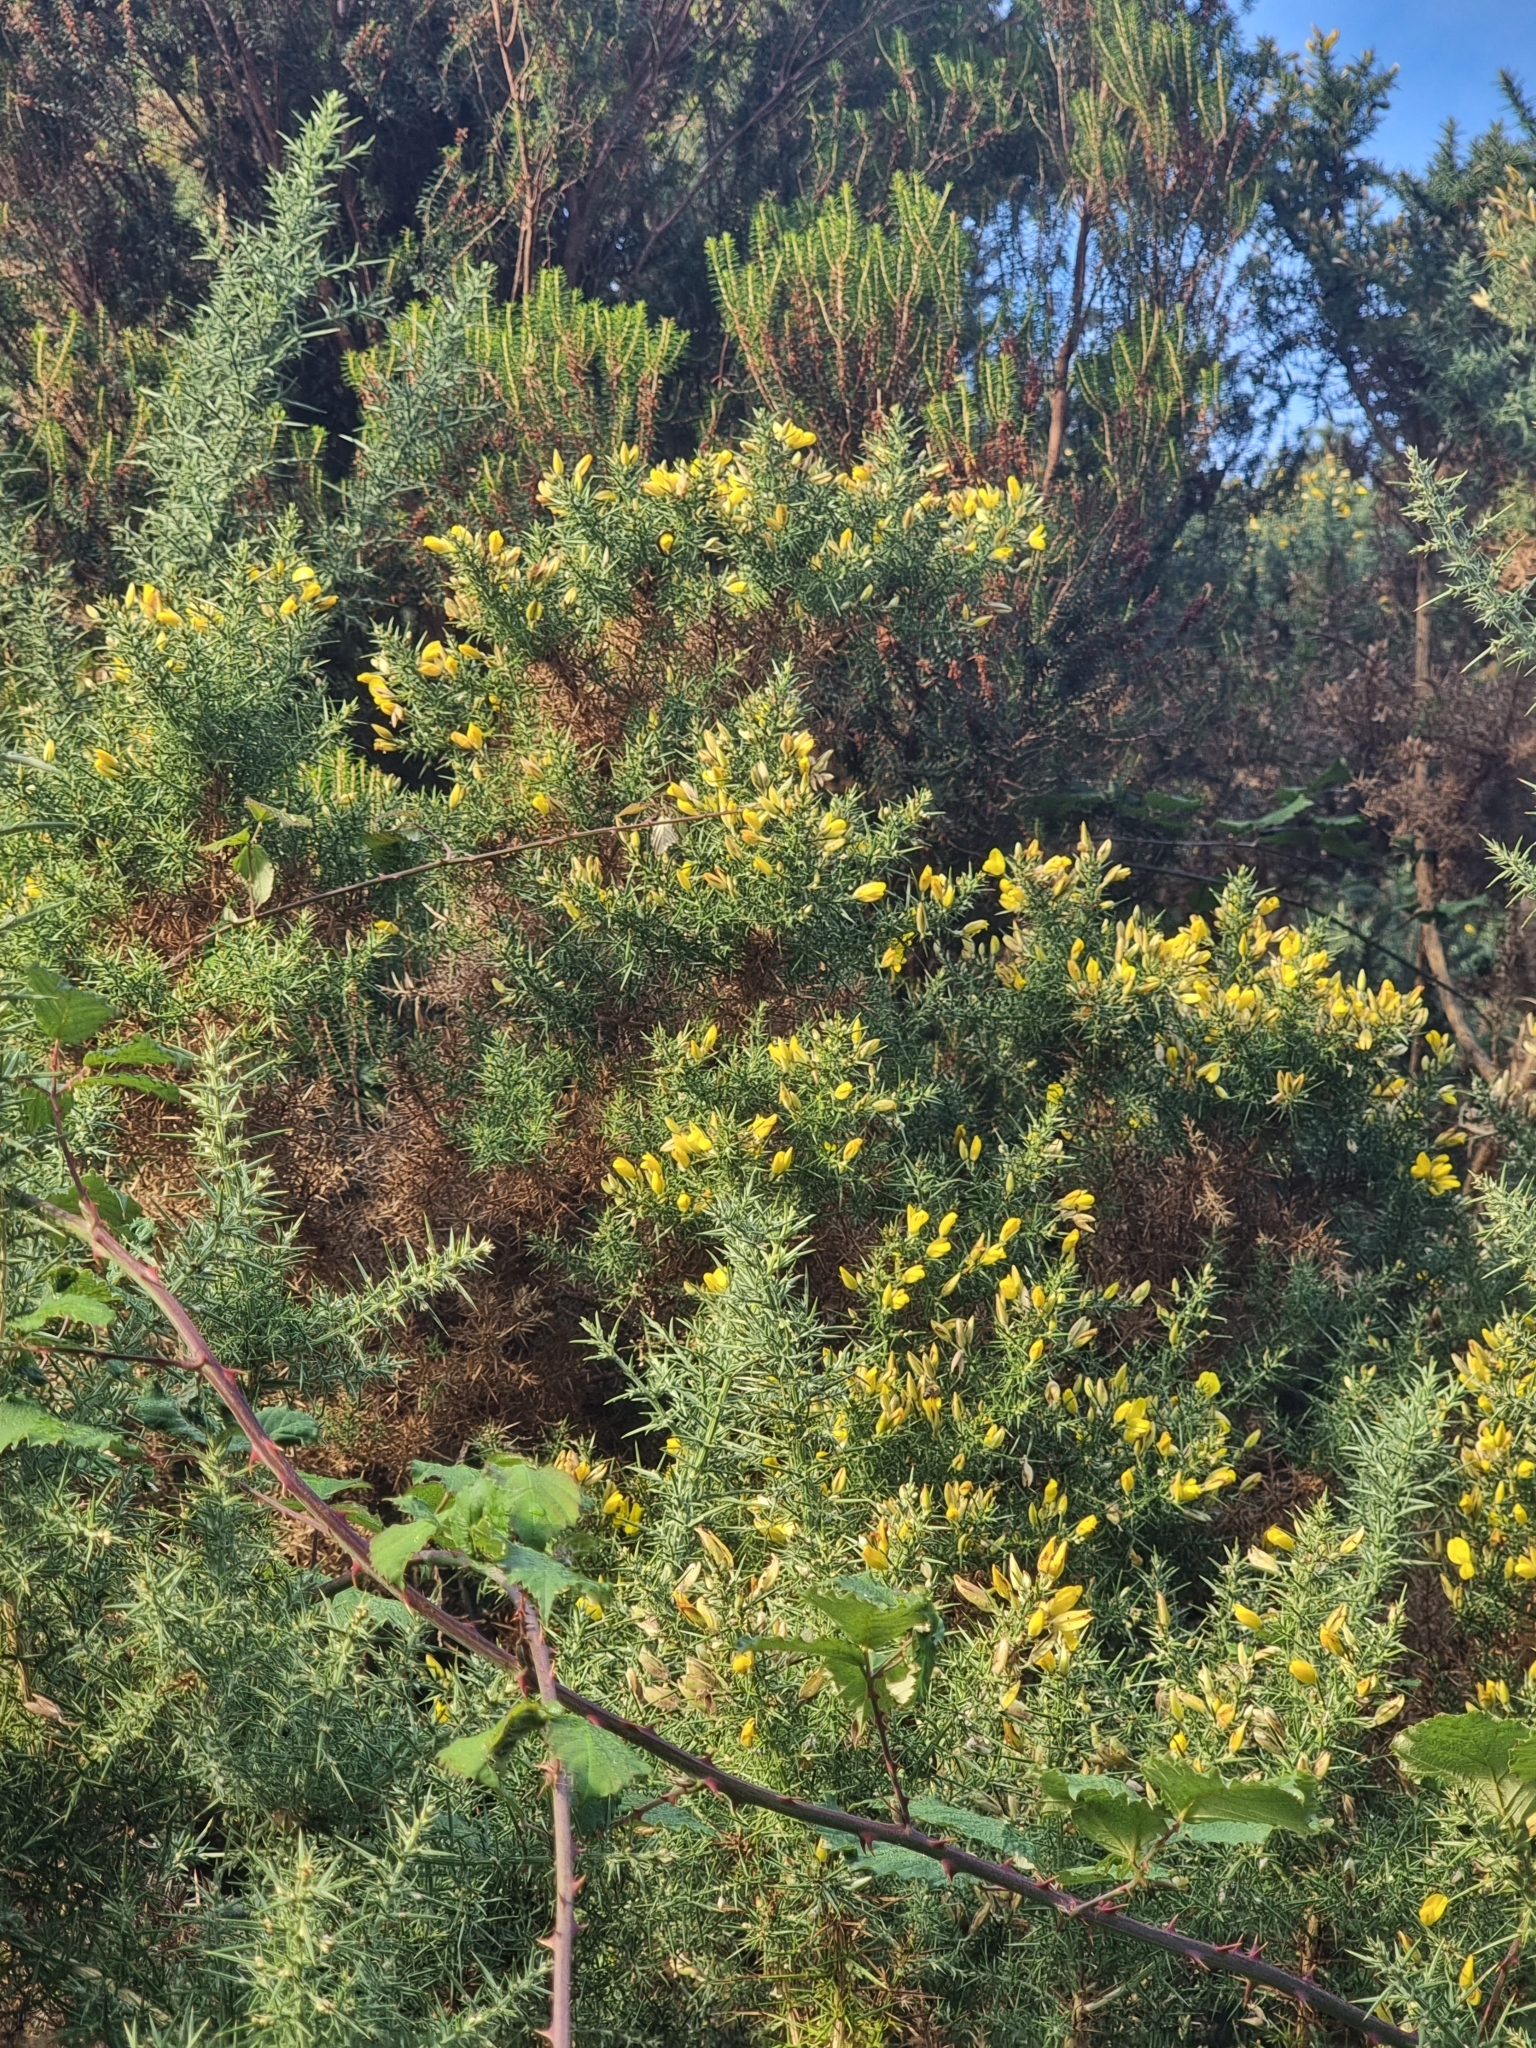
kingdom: Plantae
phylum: Tracheophyta
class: Magnoliopsida
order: Fabales
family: Fabaceae
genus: Ulex
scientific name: Ulex europaeus
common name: Common gorse
